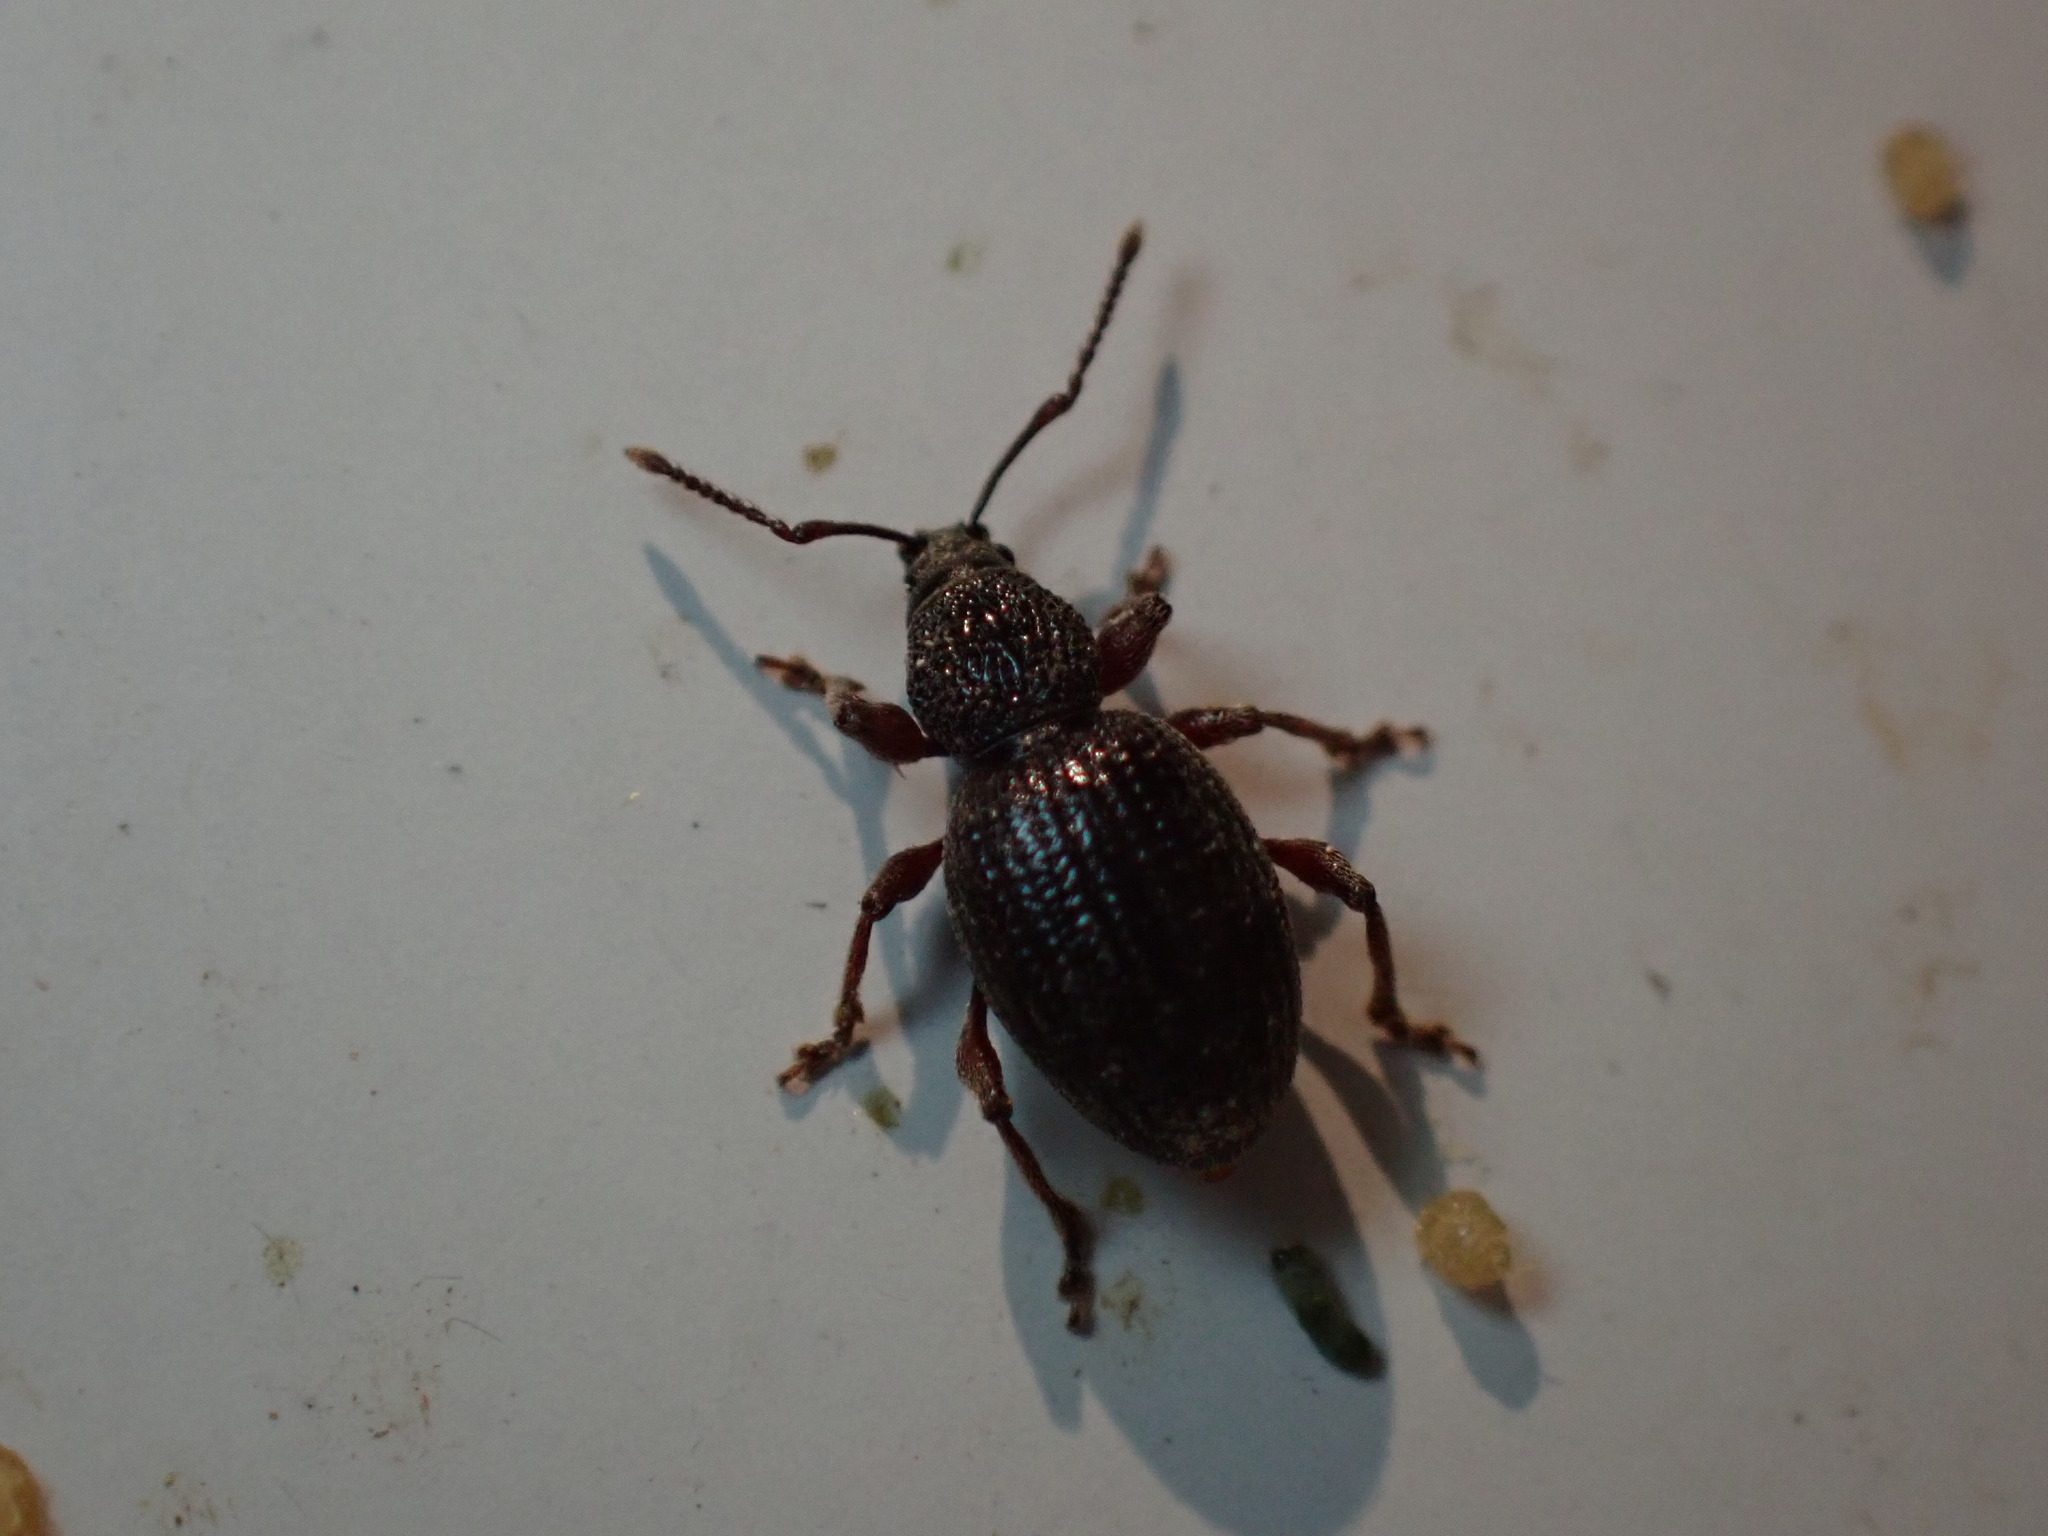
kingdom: Animalia
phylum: Arthropoda
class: Insecta
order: Coleoptera
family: Curculionidae
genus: Otiorhynchus
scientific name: Otiorhynchus ovatus
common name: Strawberry root weevil
